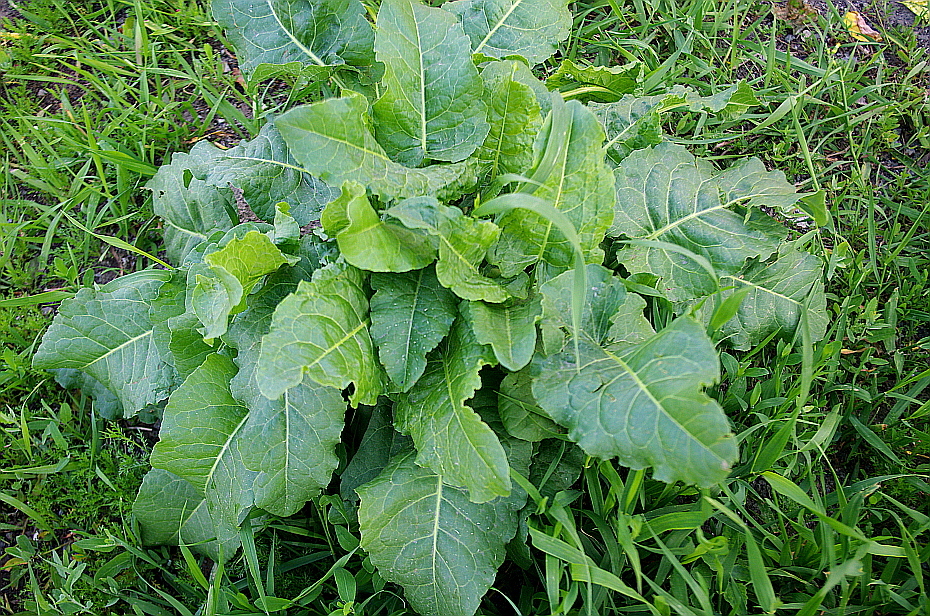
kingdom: Plantae
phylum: Tracheophyta
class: Magnoliopsida
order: Caryophyllales
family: Polygonaceae
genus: Rumex
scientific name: Rumex confertus
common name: Russian dock
